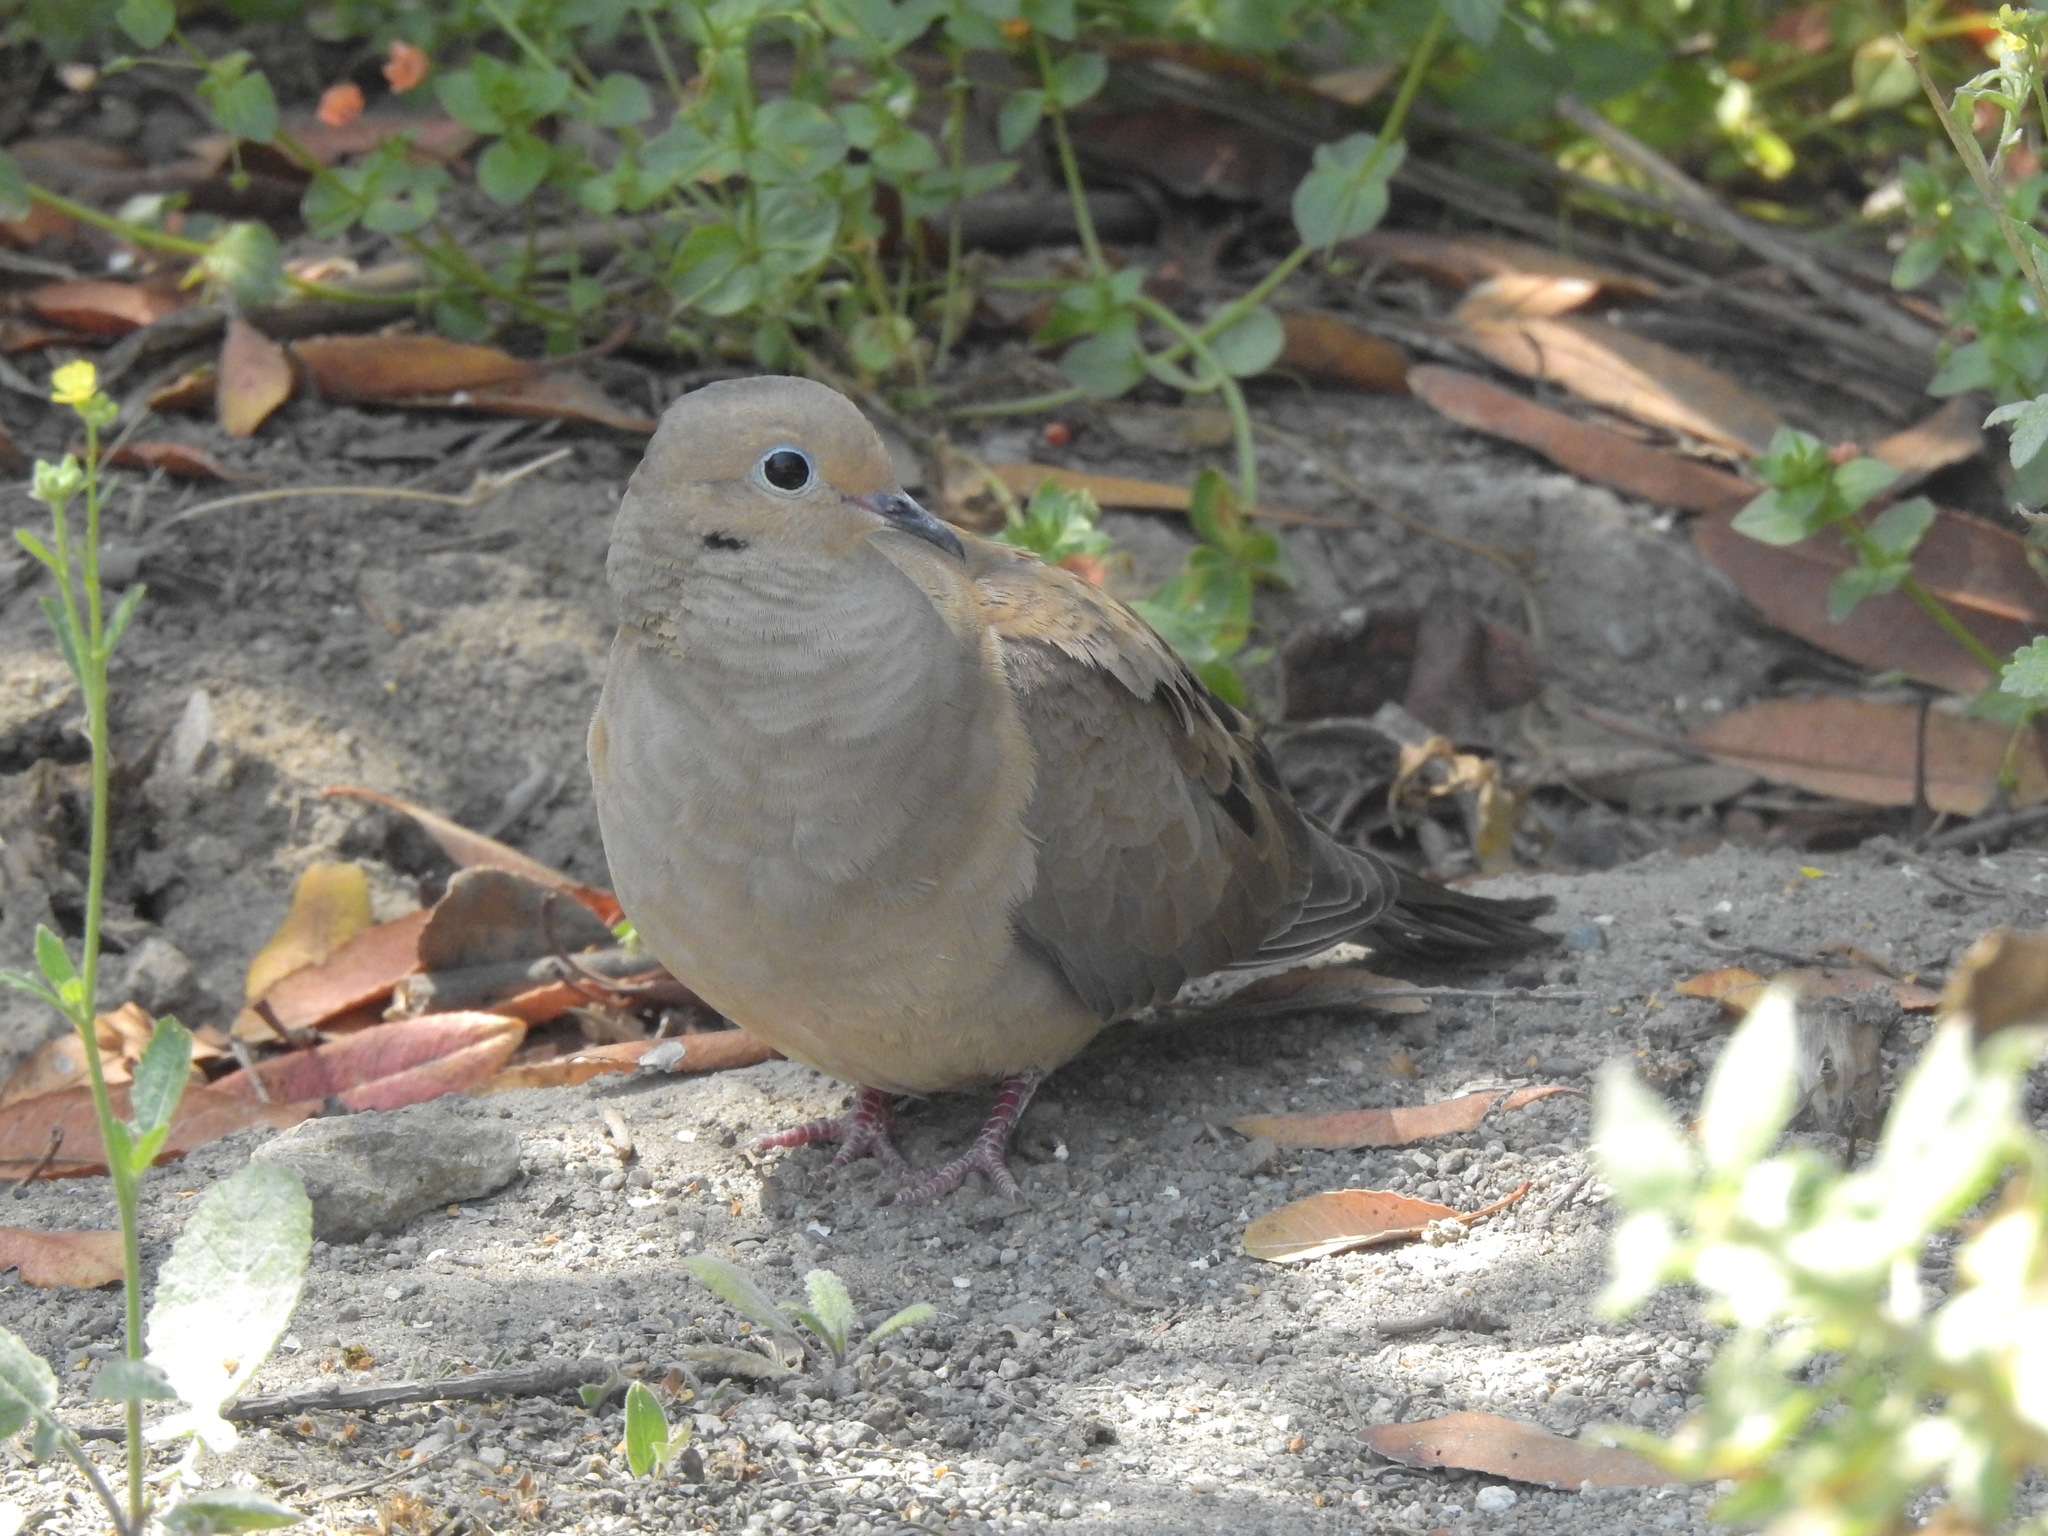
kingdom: Animalia
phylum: Chordata
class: Aves
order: Columbiformes
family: Columbidae
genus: Zenaida
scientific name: Zenaida macroura
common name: Mourning dove
